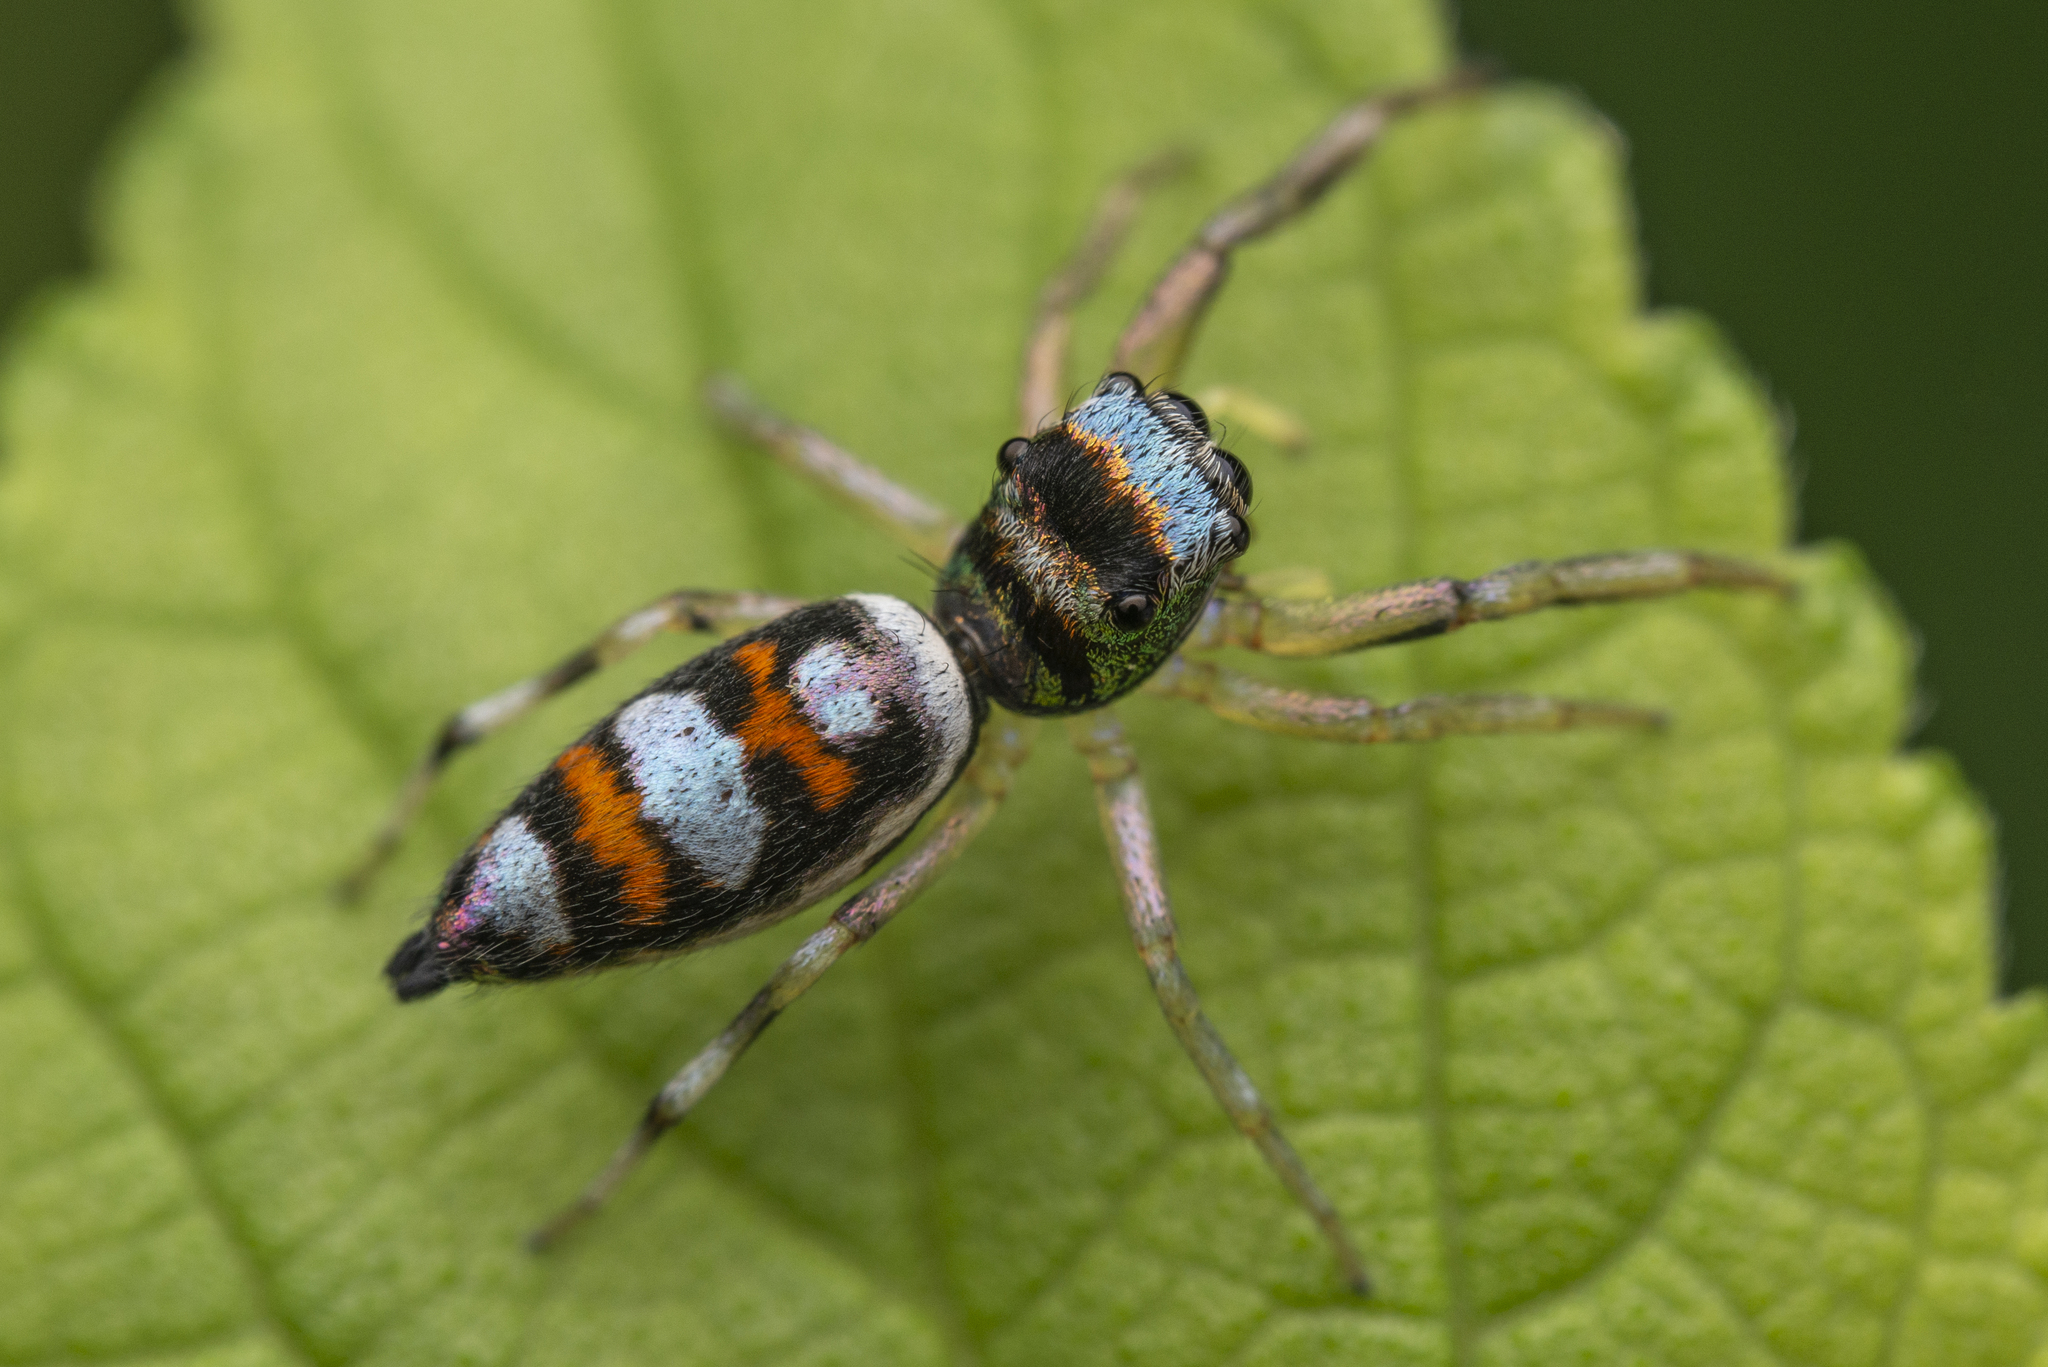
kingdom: Animalia
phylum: Arthropoda
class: Arachnida
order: Araneae
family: Salticidae
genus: Chrysilla
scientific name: Chrysilla acerosa
